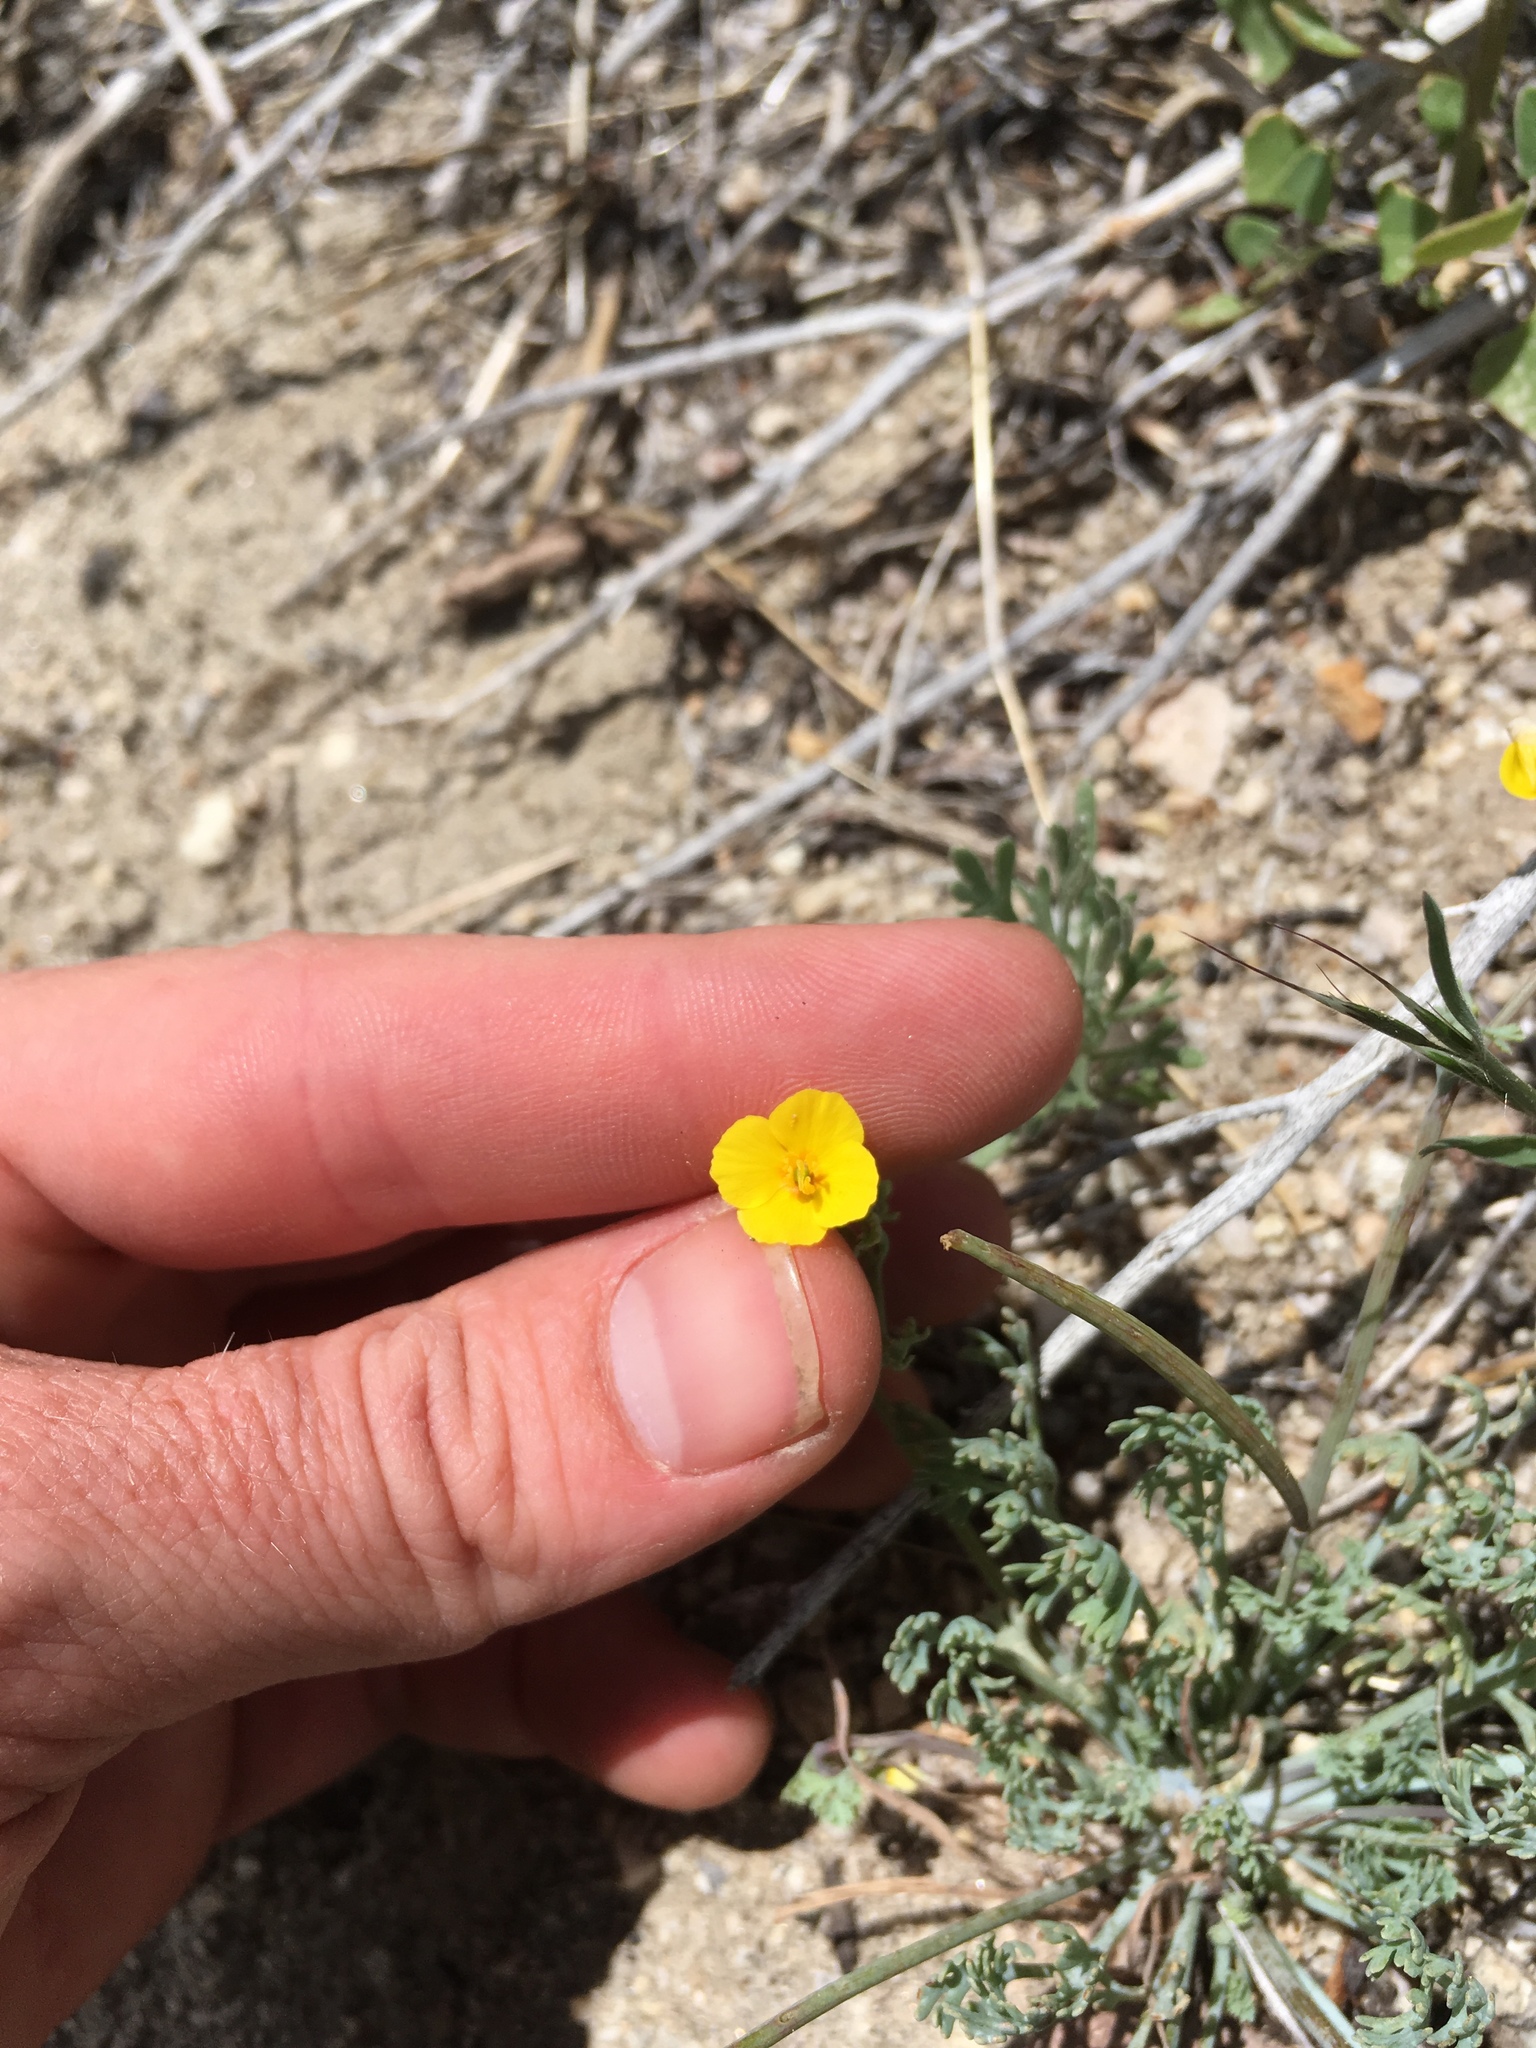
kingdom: Plantae
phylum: Tracheophyta
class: Magnoliopsida
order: Ranunculales
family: Papaveraceae
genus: Eschscholzia
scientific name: Eschscholzia minutiflora
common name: Small-flower california-poppy
